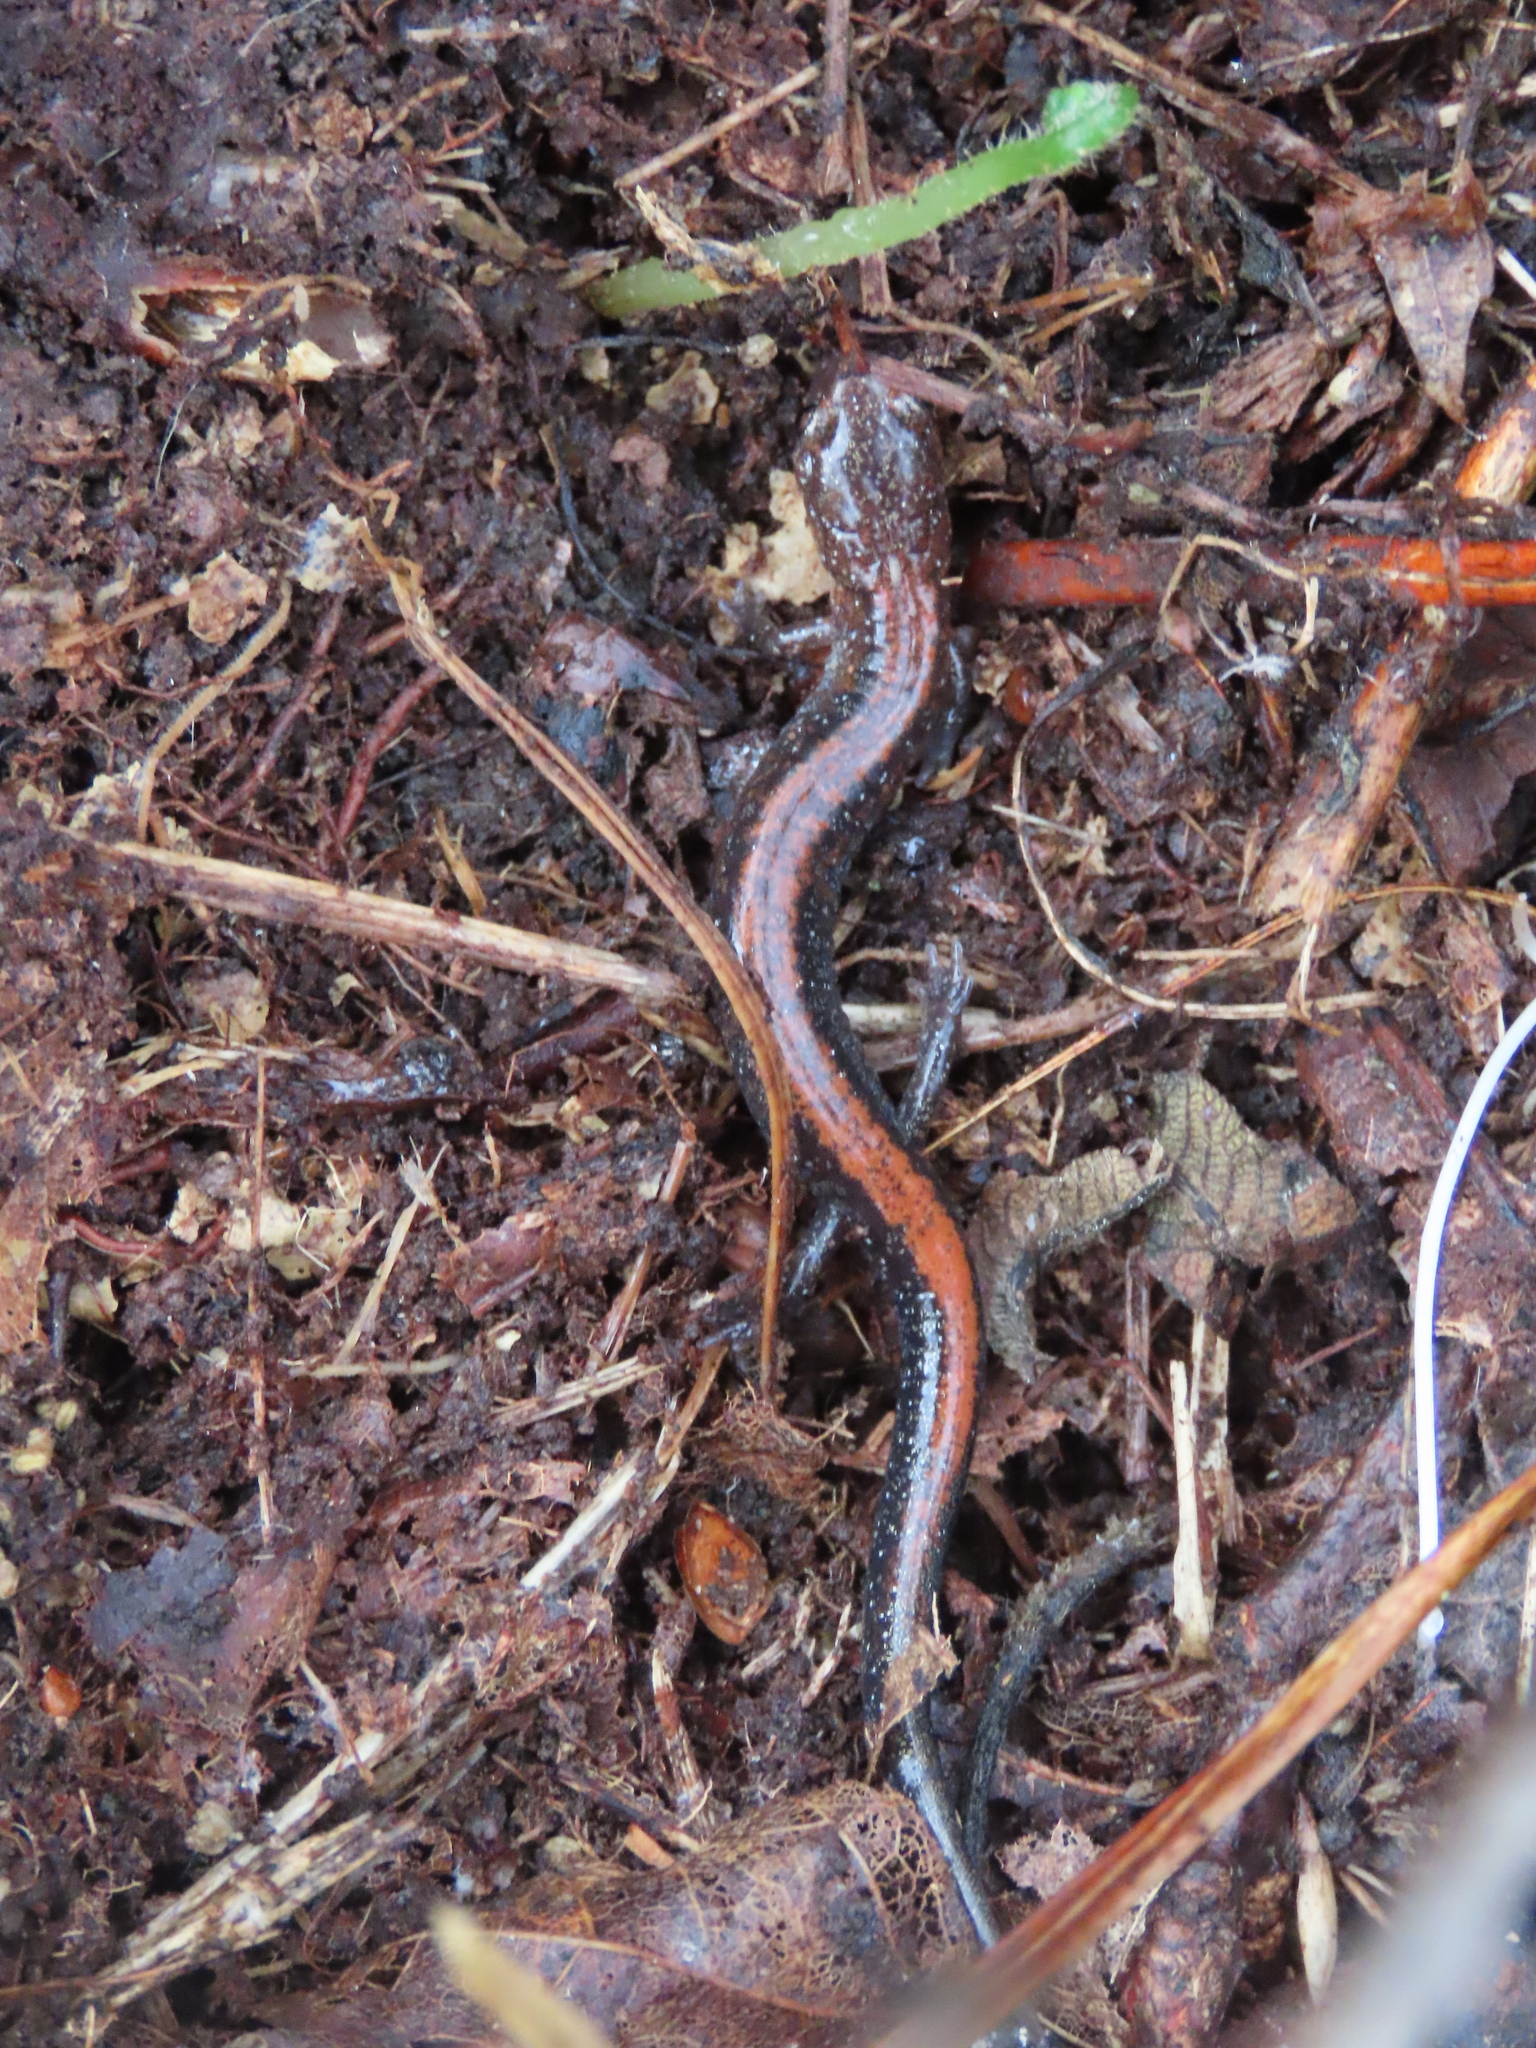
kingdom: Animalia
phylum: Chordata
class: Amphibia
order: Caudata
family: Plethodontidae
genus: Plethodon
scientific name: Plethodon cinereus
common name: Redback salamander
